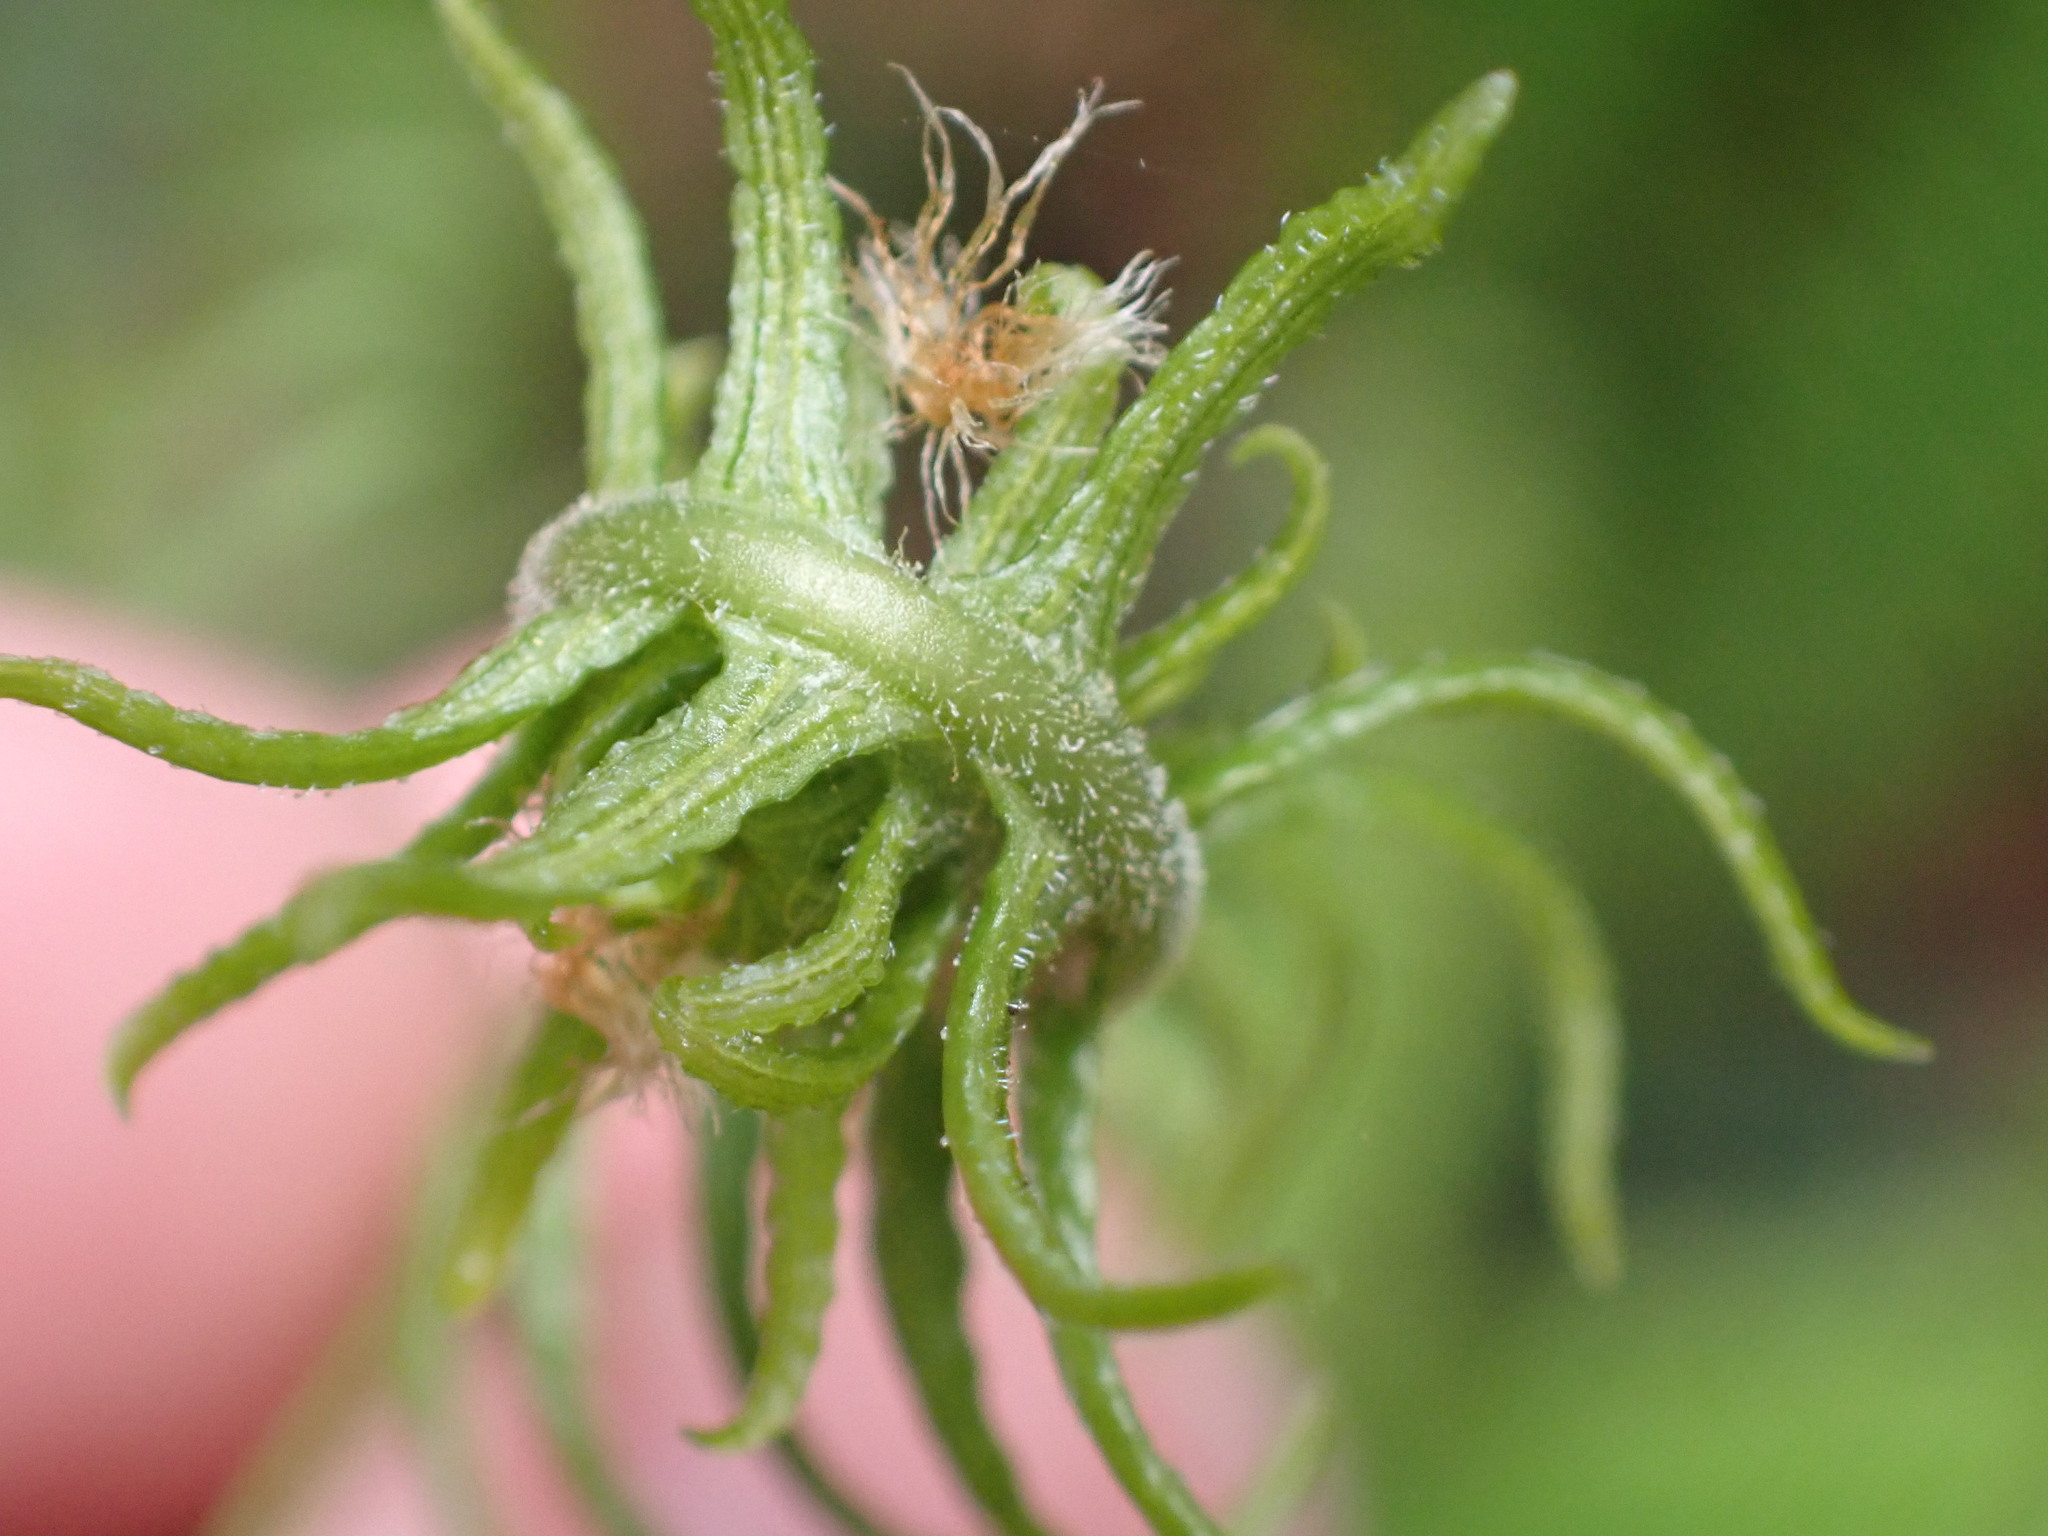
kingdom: Plantae
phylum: Tracheophyta
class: Polypodiopsida
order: Polypodiales
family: Blechnaceae
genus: Struthiopteris
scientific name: Struthiopteris spicant
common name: Deer fern
